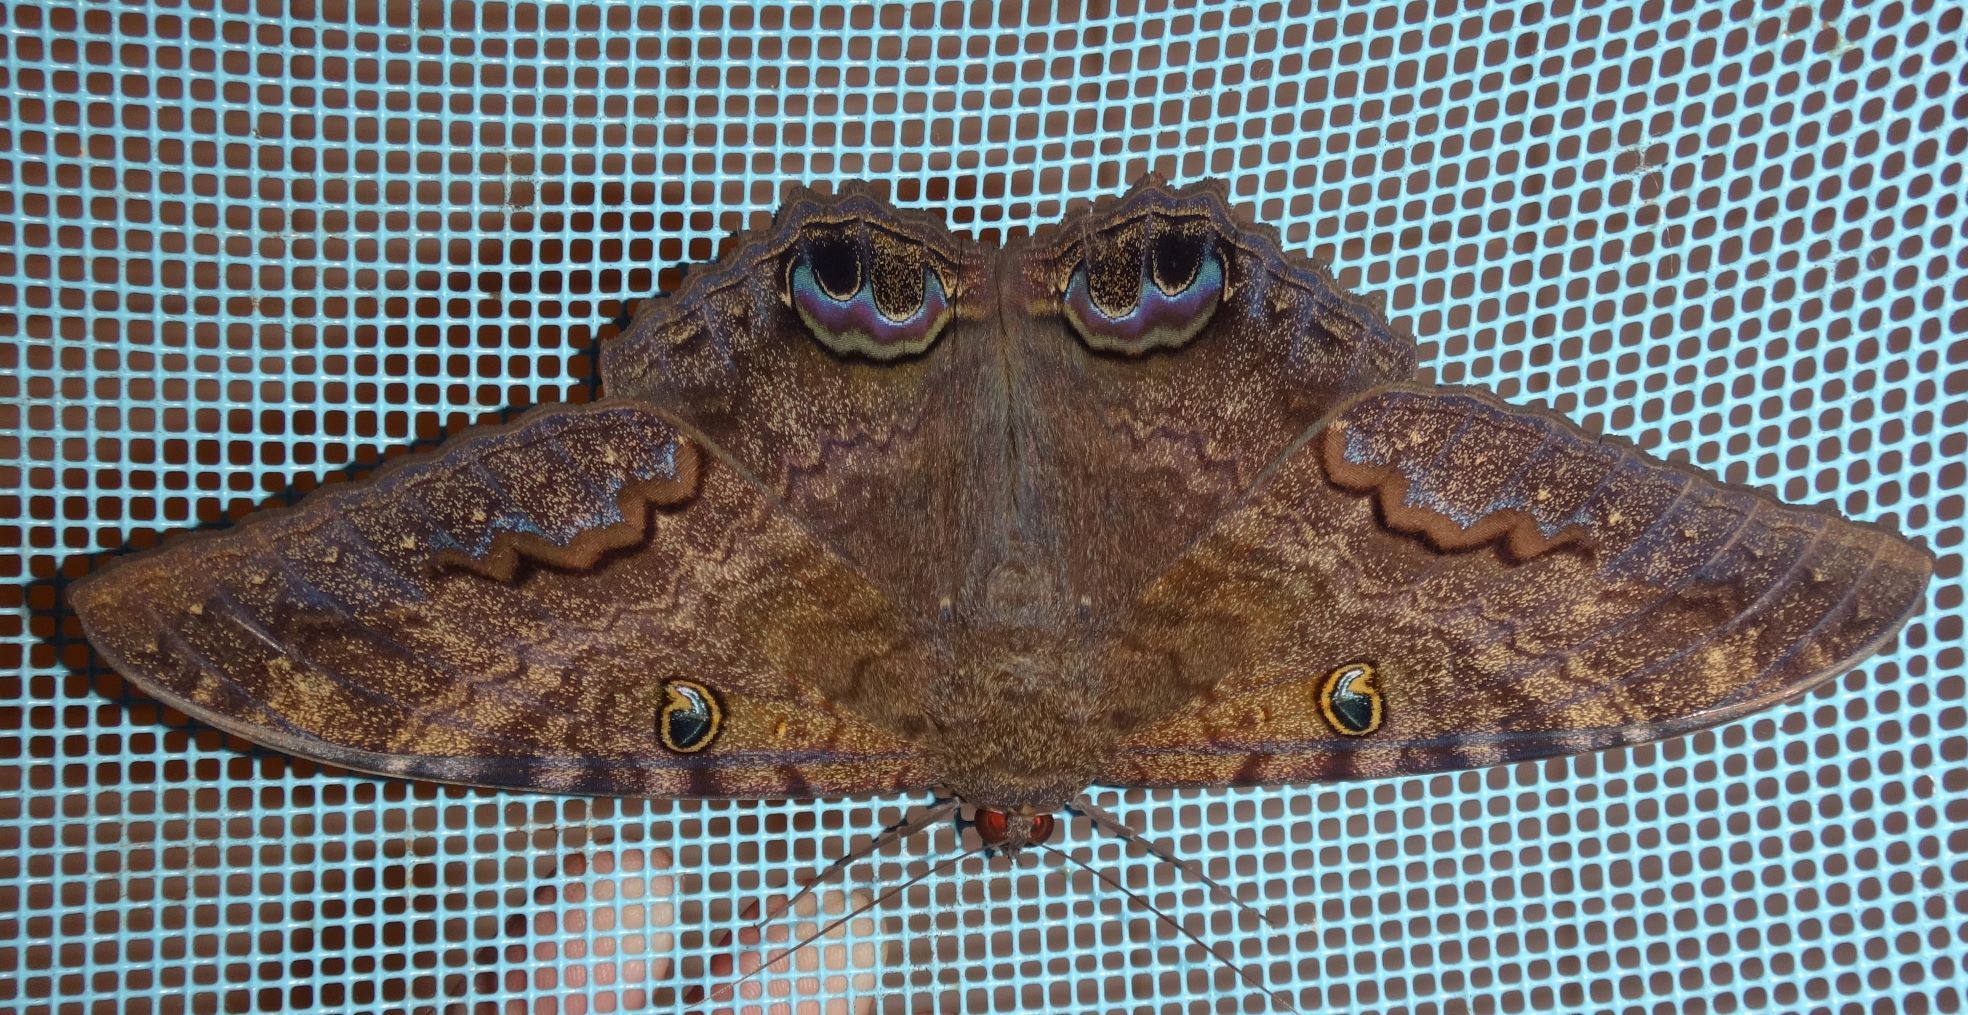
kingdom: Animalia
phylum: Arthropoda
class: Insecta
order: Lepidoptera
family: Erebidae
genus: Ascalapha
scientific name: Ascalapha odorata
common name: Black witch
